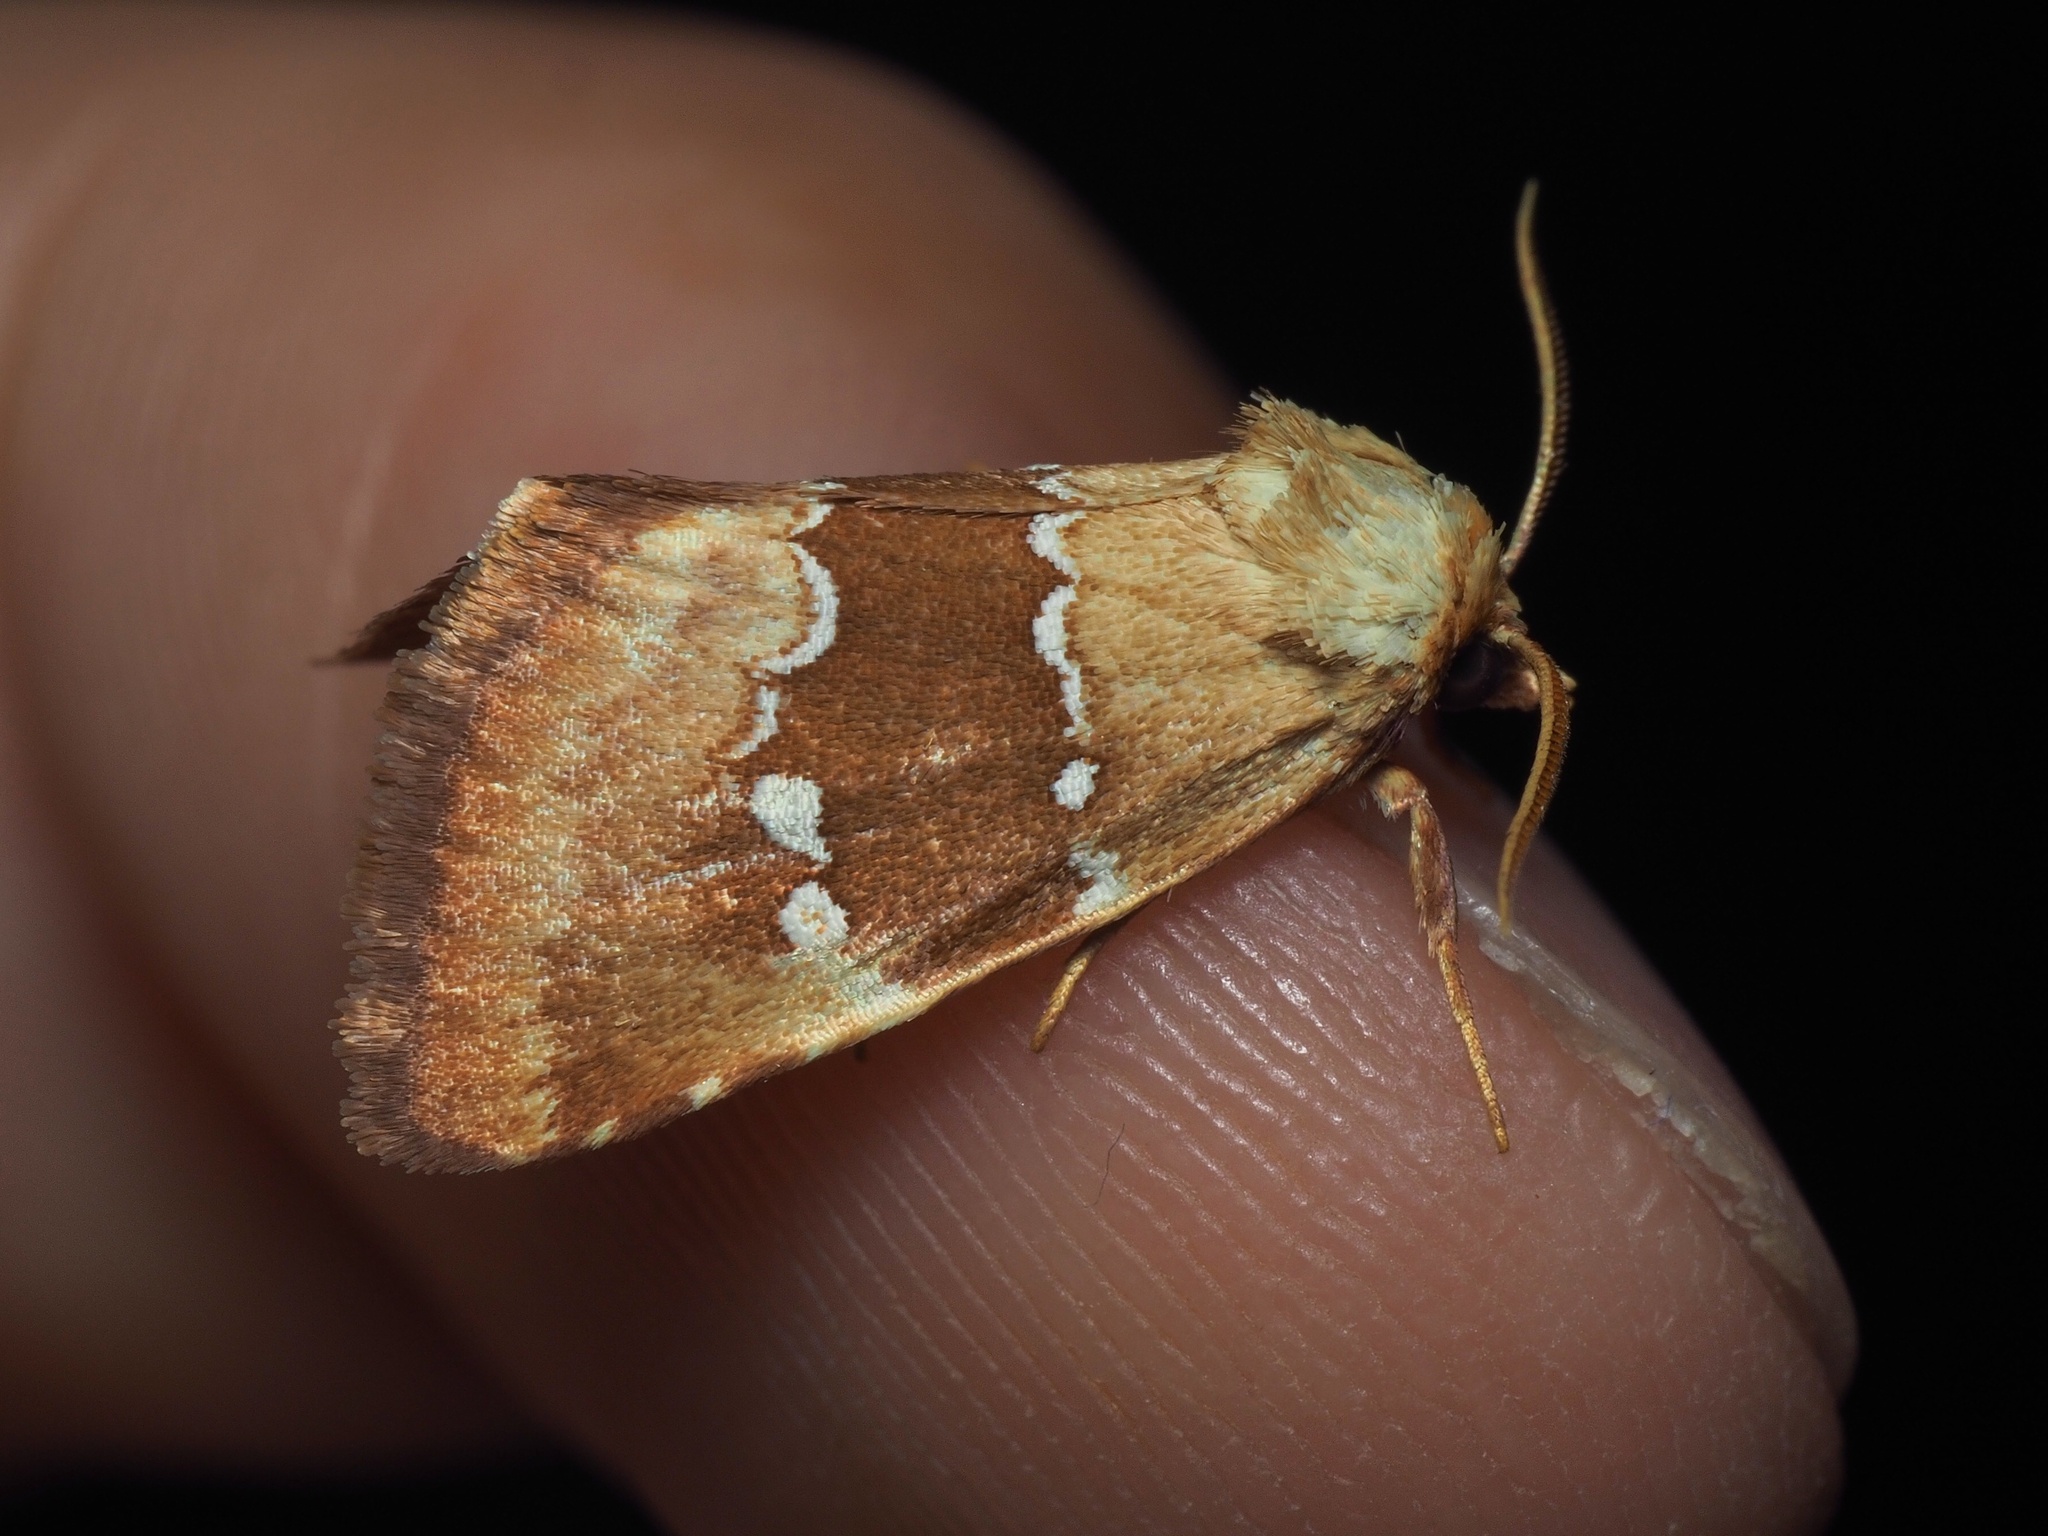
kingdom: Animalia
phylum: Arthropoda
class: Insecta
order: Lepidoptera
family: Noctuidae
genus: Haemerosia
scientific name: Haemerosia vassilininei
